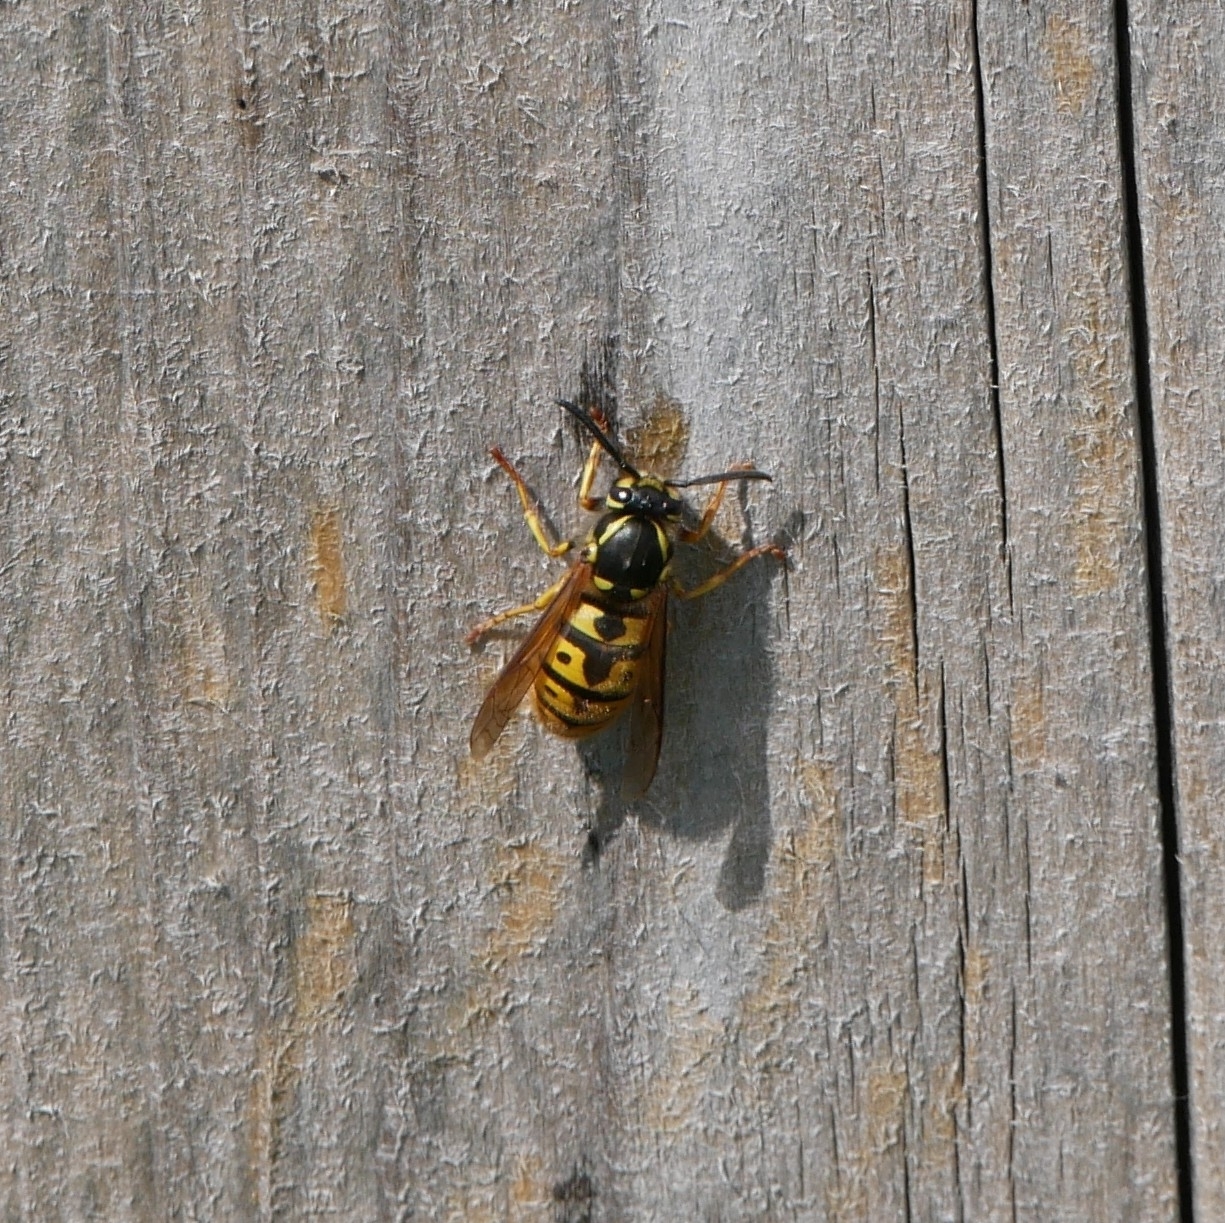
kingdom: Animalia
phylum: Arthropoda
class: Insecta
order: Hymenoptera
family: Vespidae
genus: Vespula
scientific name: Vespula germanica
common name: German wasp
